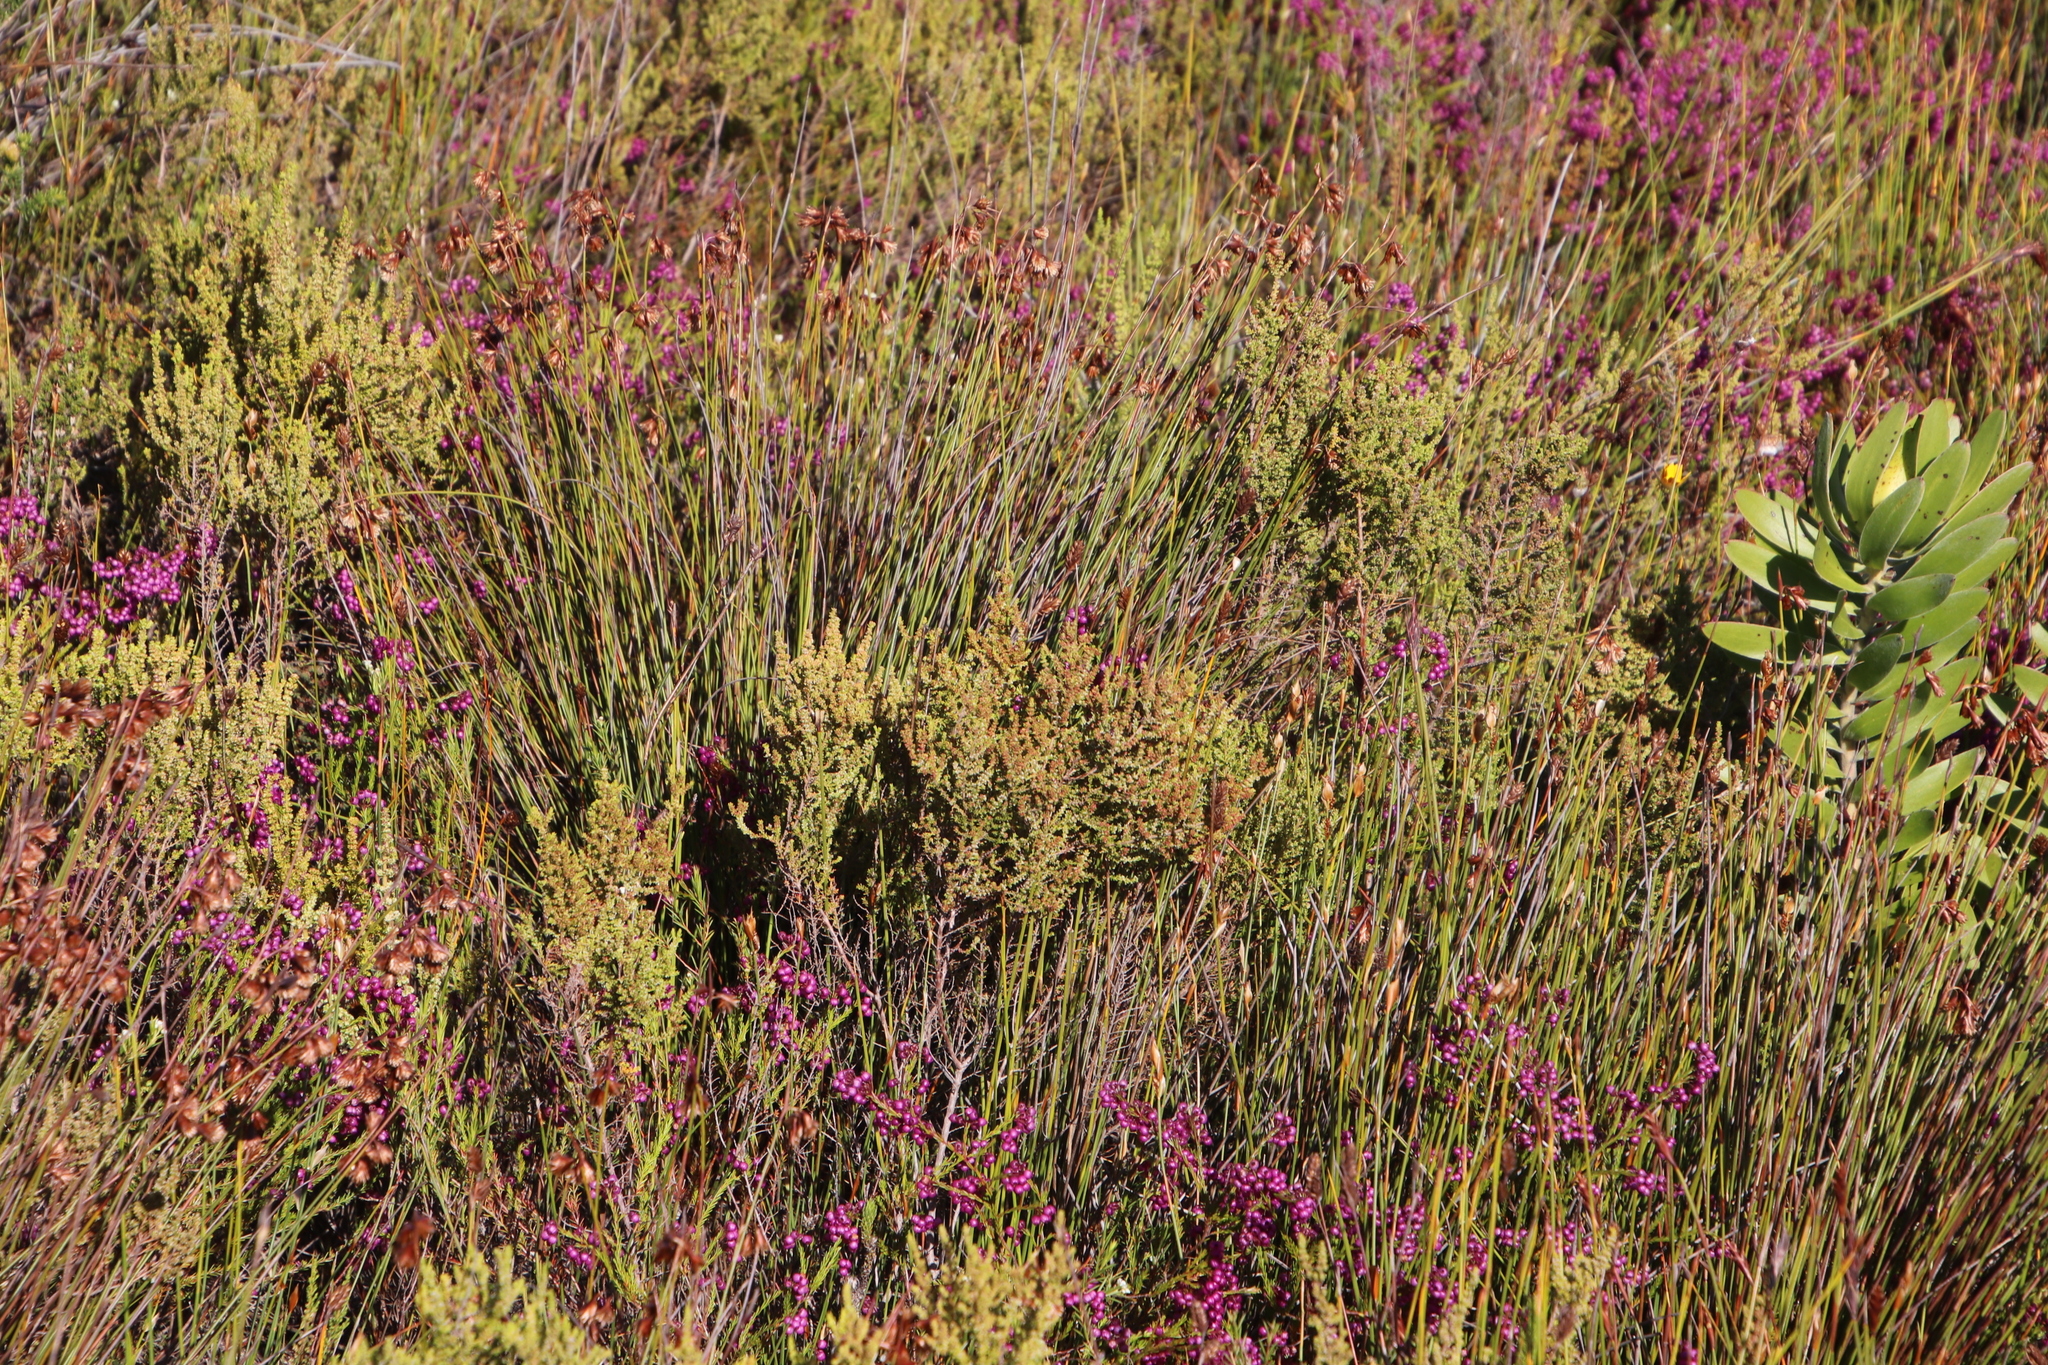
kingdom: Plantae
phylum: Tracheophyta
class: Magnoliopsida
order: Ericales
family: Ericaceae
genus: Erica
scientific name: Erica muscosa
